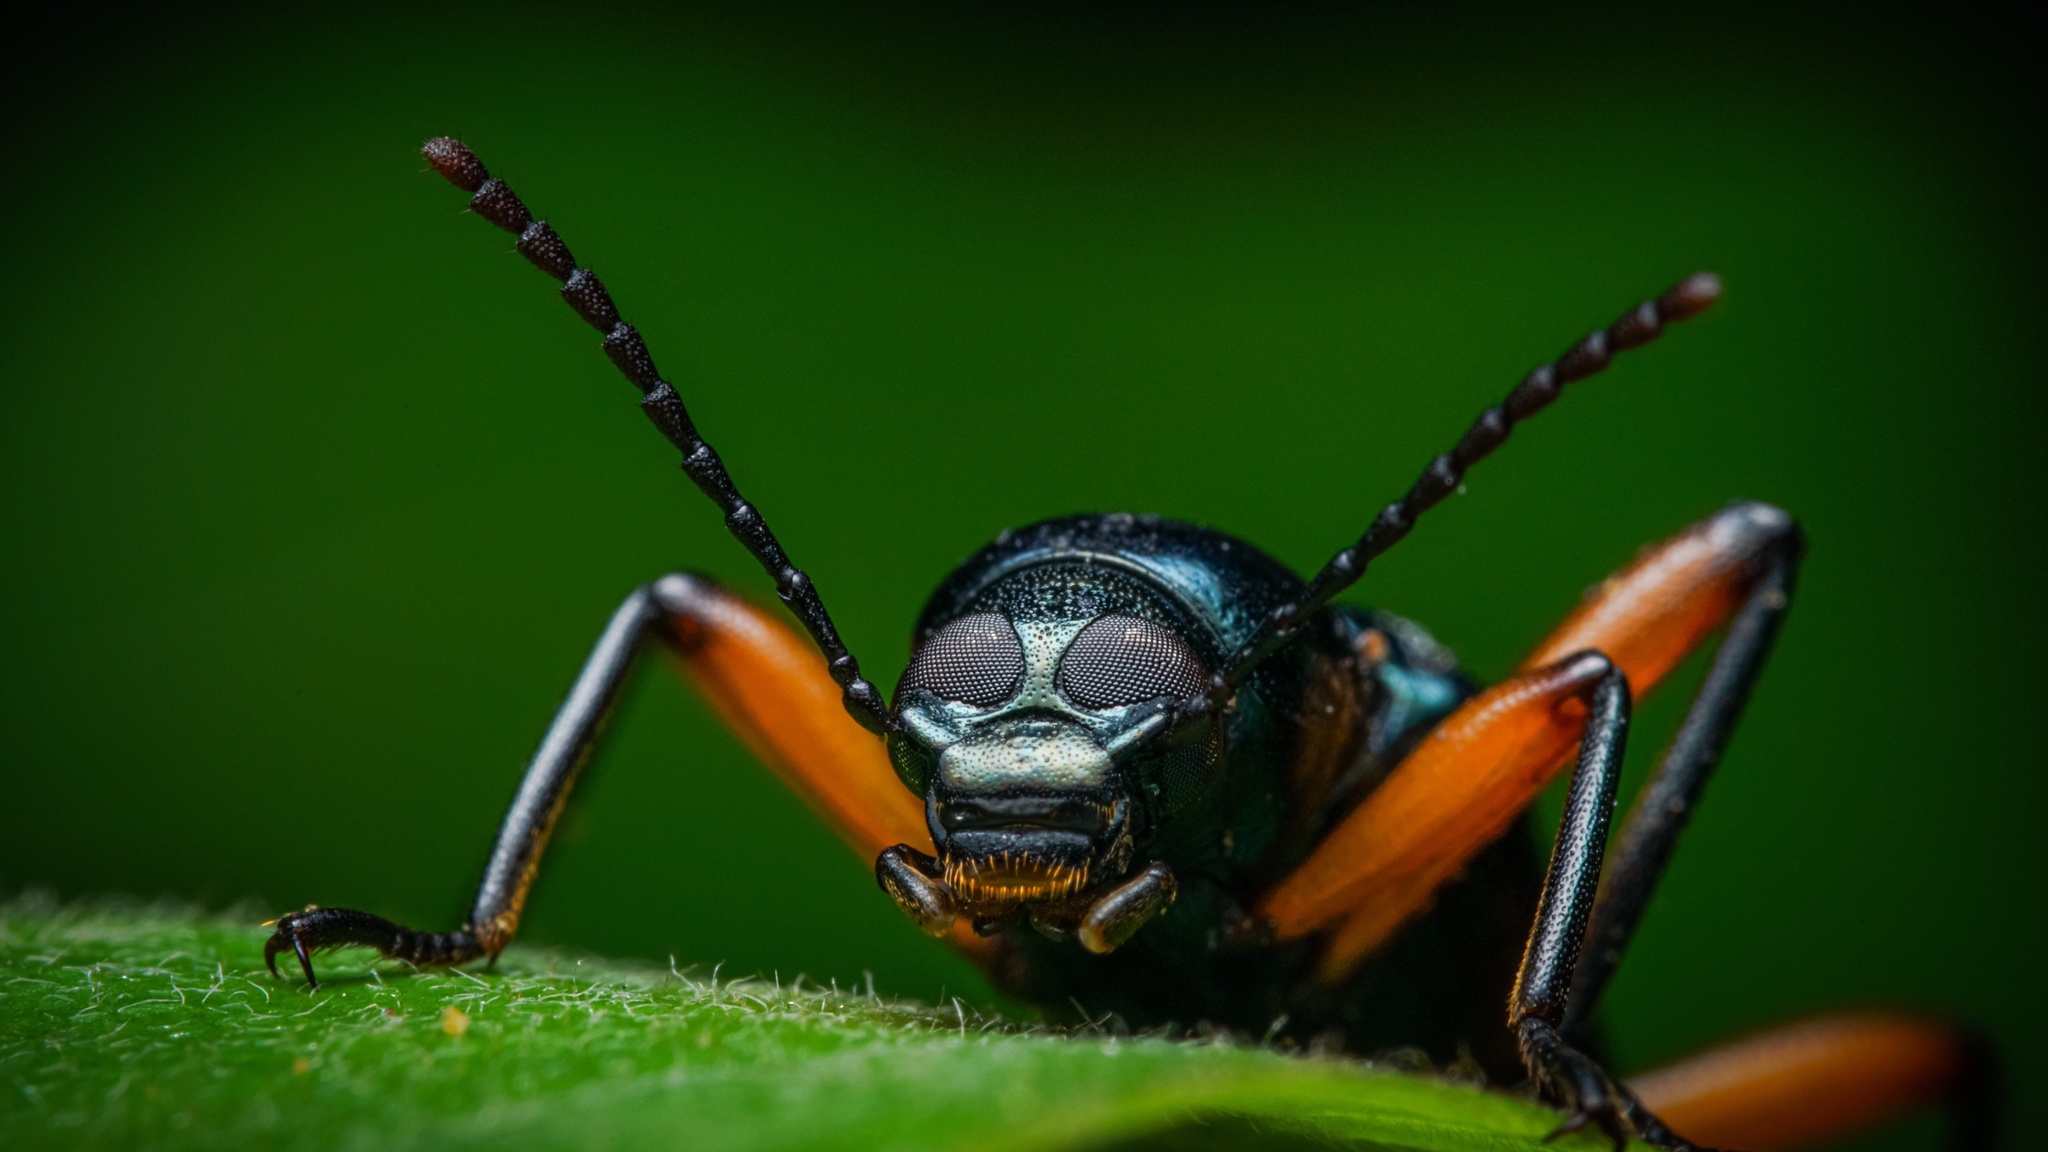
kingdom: Animalia
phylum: Arthropoda
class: Insecta
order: Coleoptera
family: Tenebrionidae
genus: Strongylium
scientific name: Strongylium erythrocephalum
